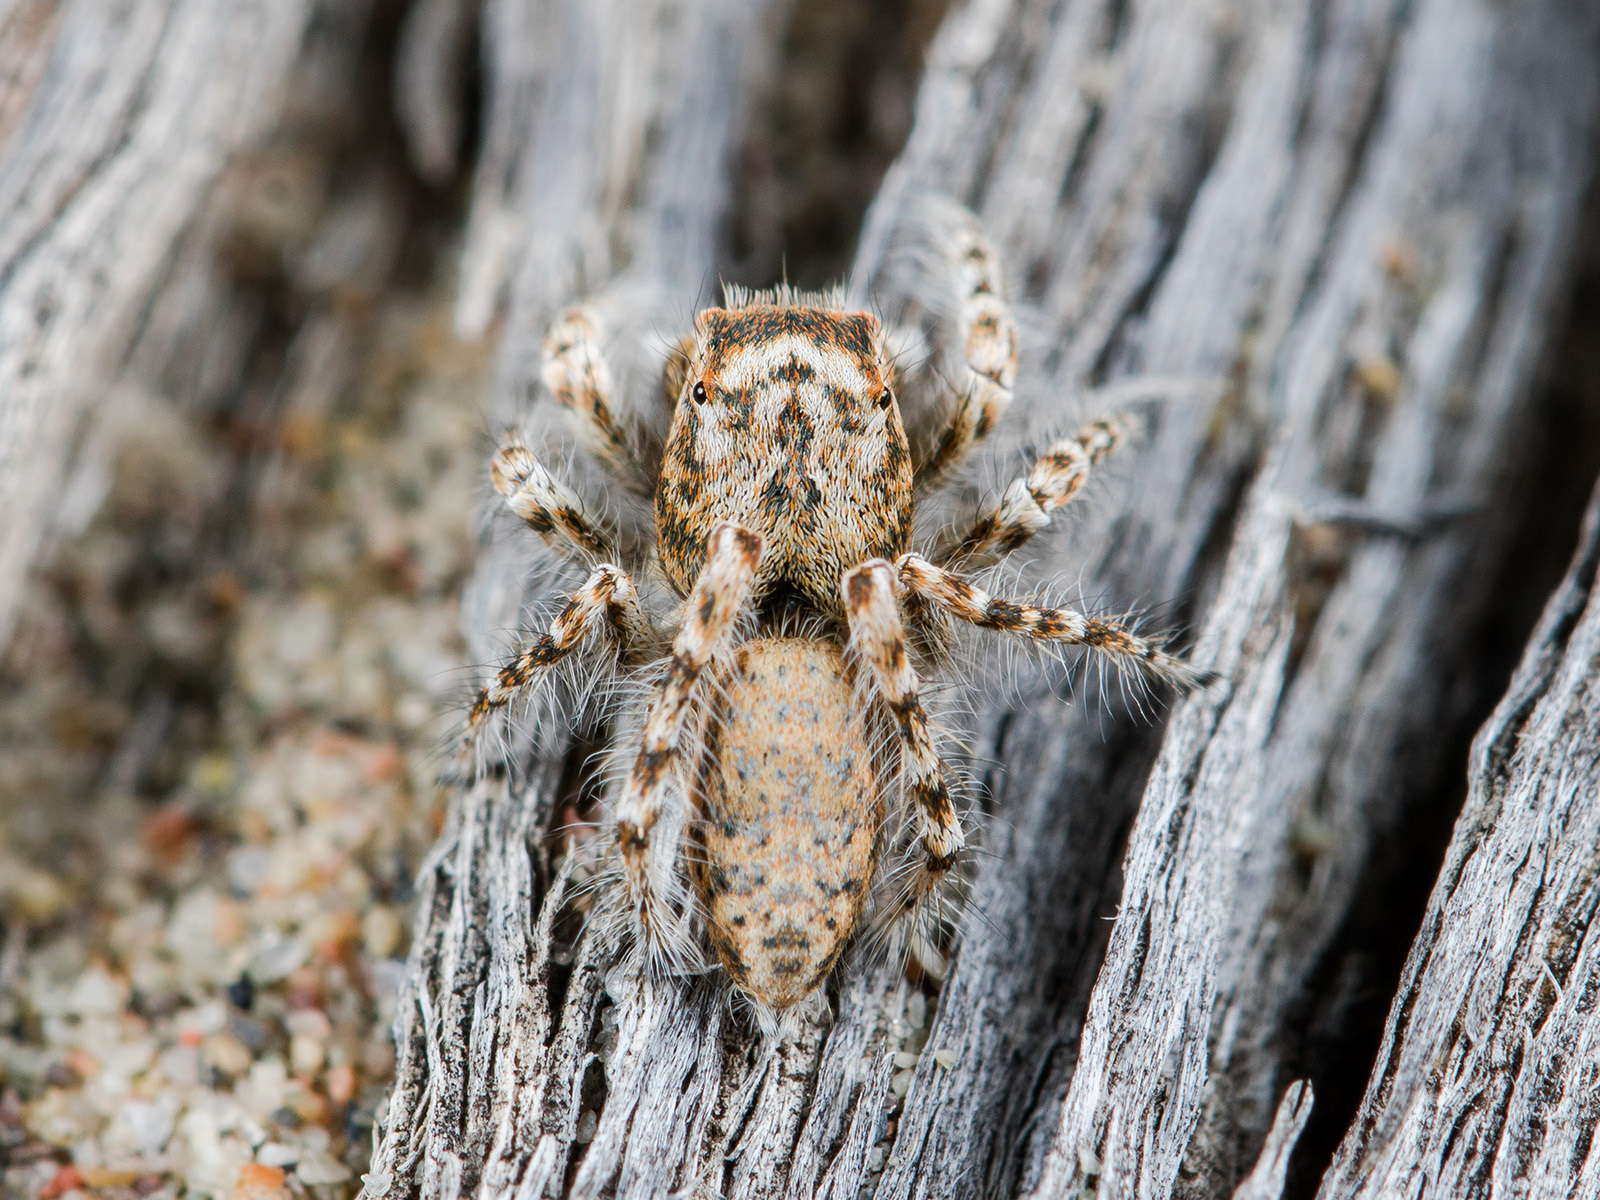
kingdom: Animalia
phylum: Arthropoda
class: Arachnida
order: Araneae
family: Salticidae
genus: Yllenus
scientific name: Yllenus uiguricus
